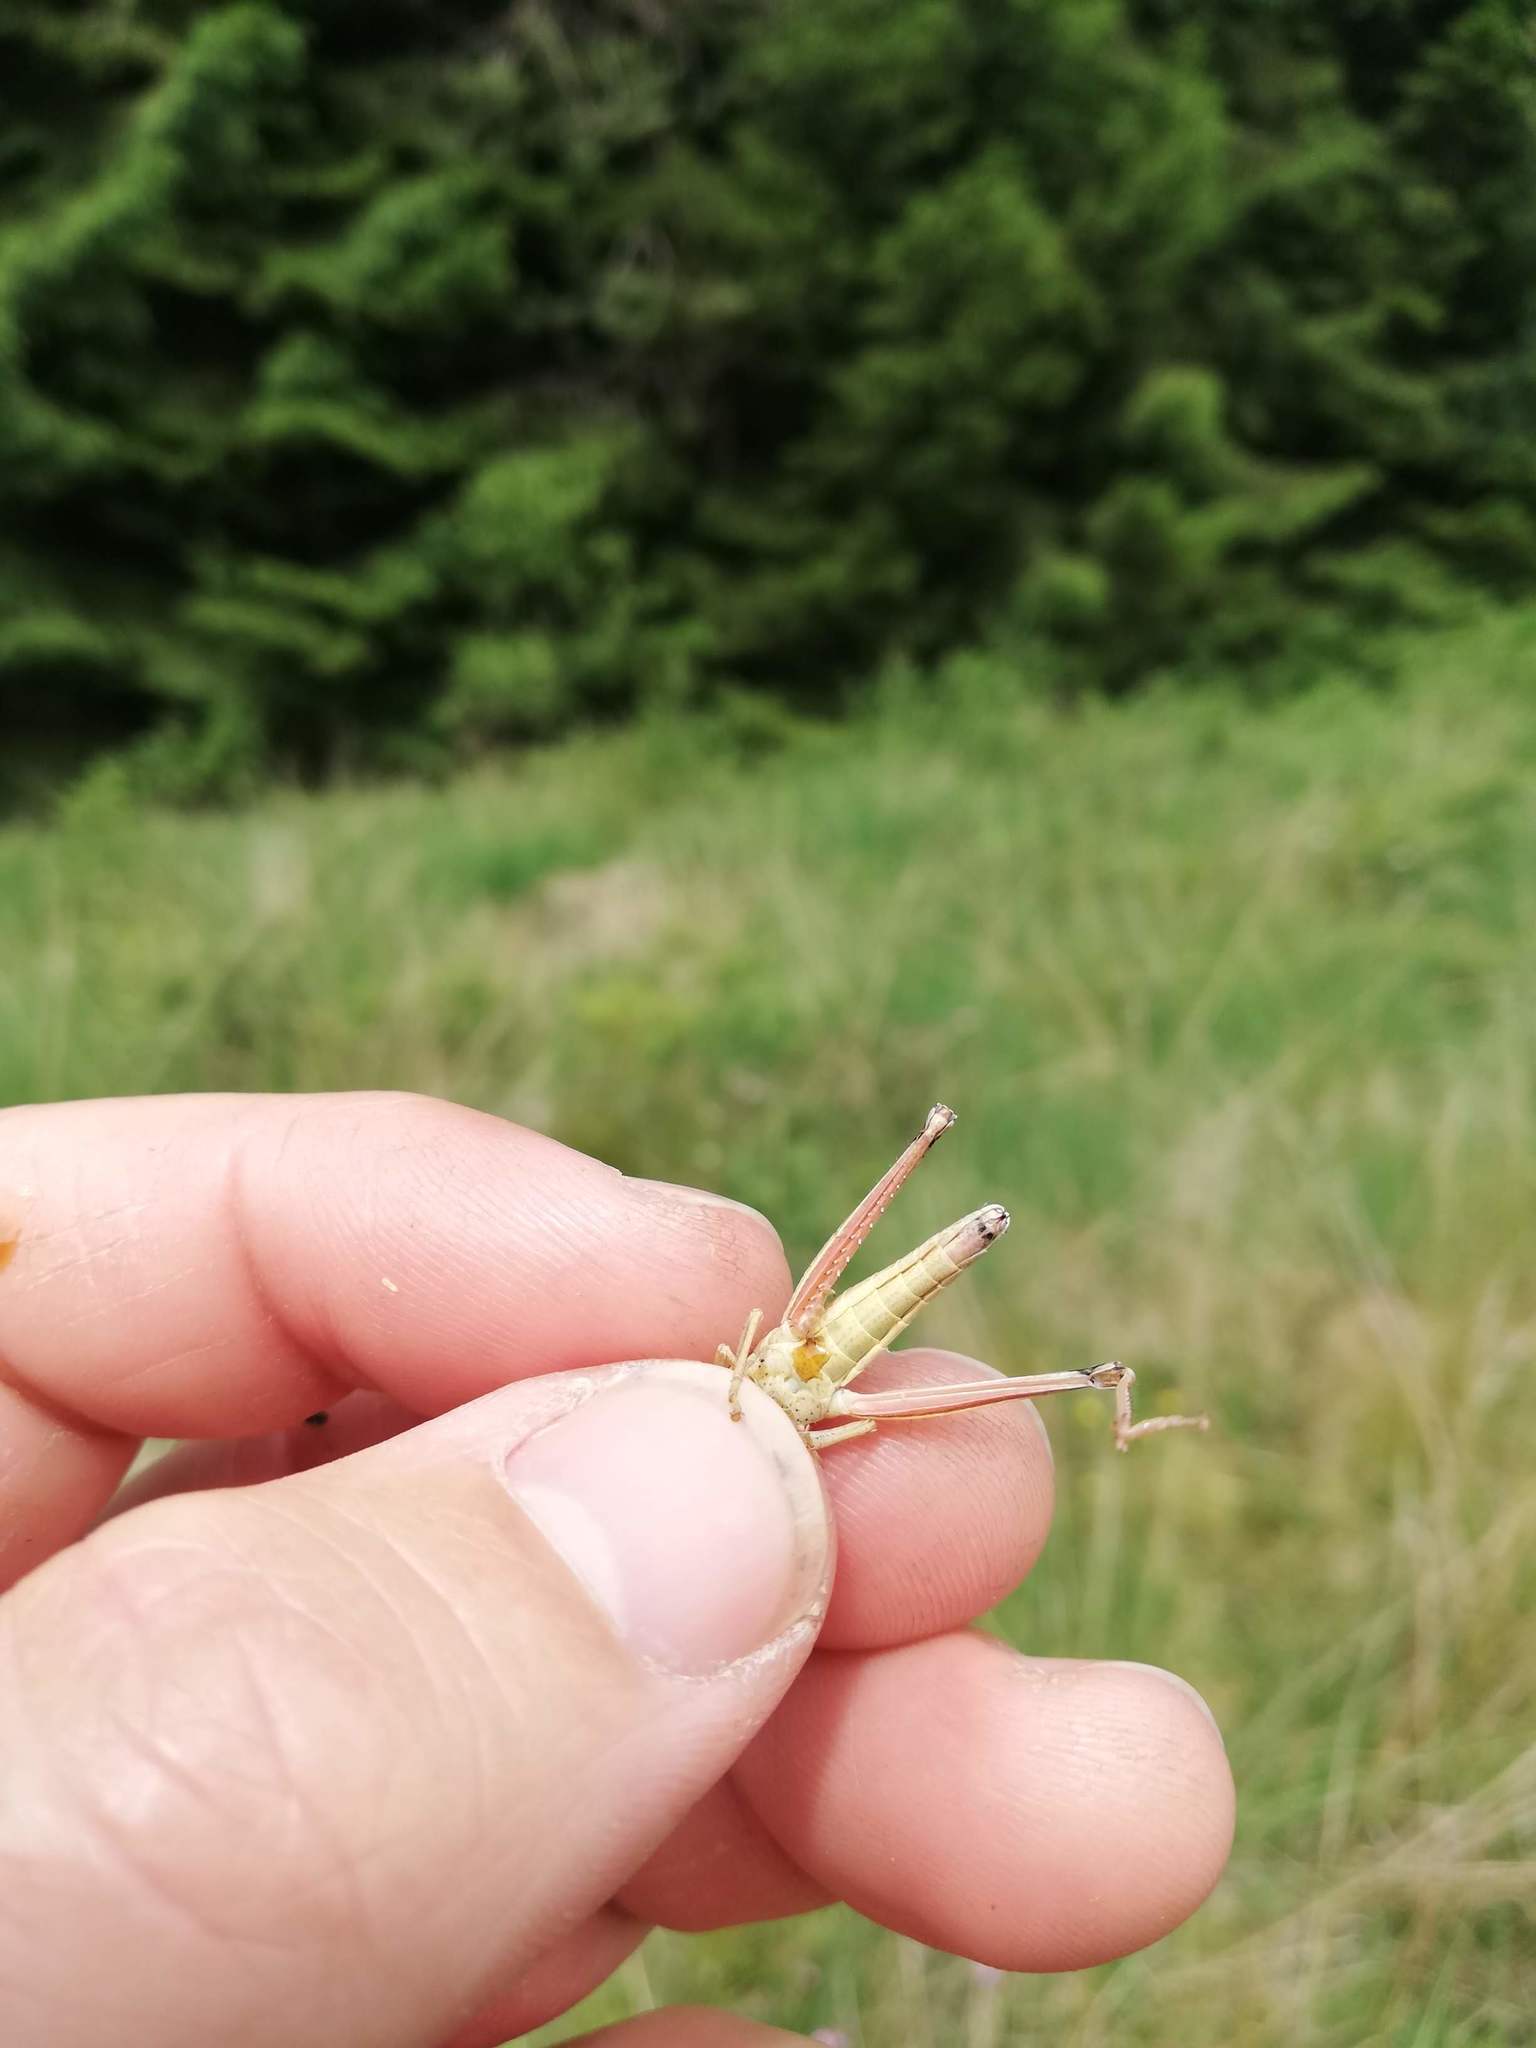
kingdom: Animalia
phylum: Arthropoda
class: Insecta
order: Orthoptera
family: Acrididae
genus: Chrysochraon
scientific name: Chrysochraon dispar
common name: Large gold grasshopper
